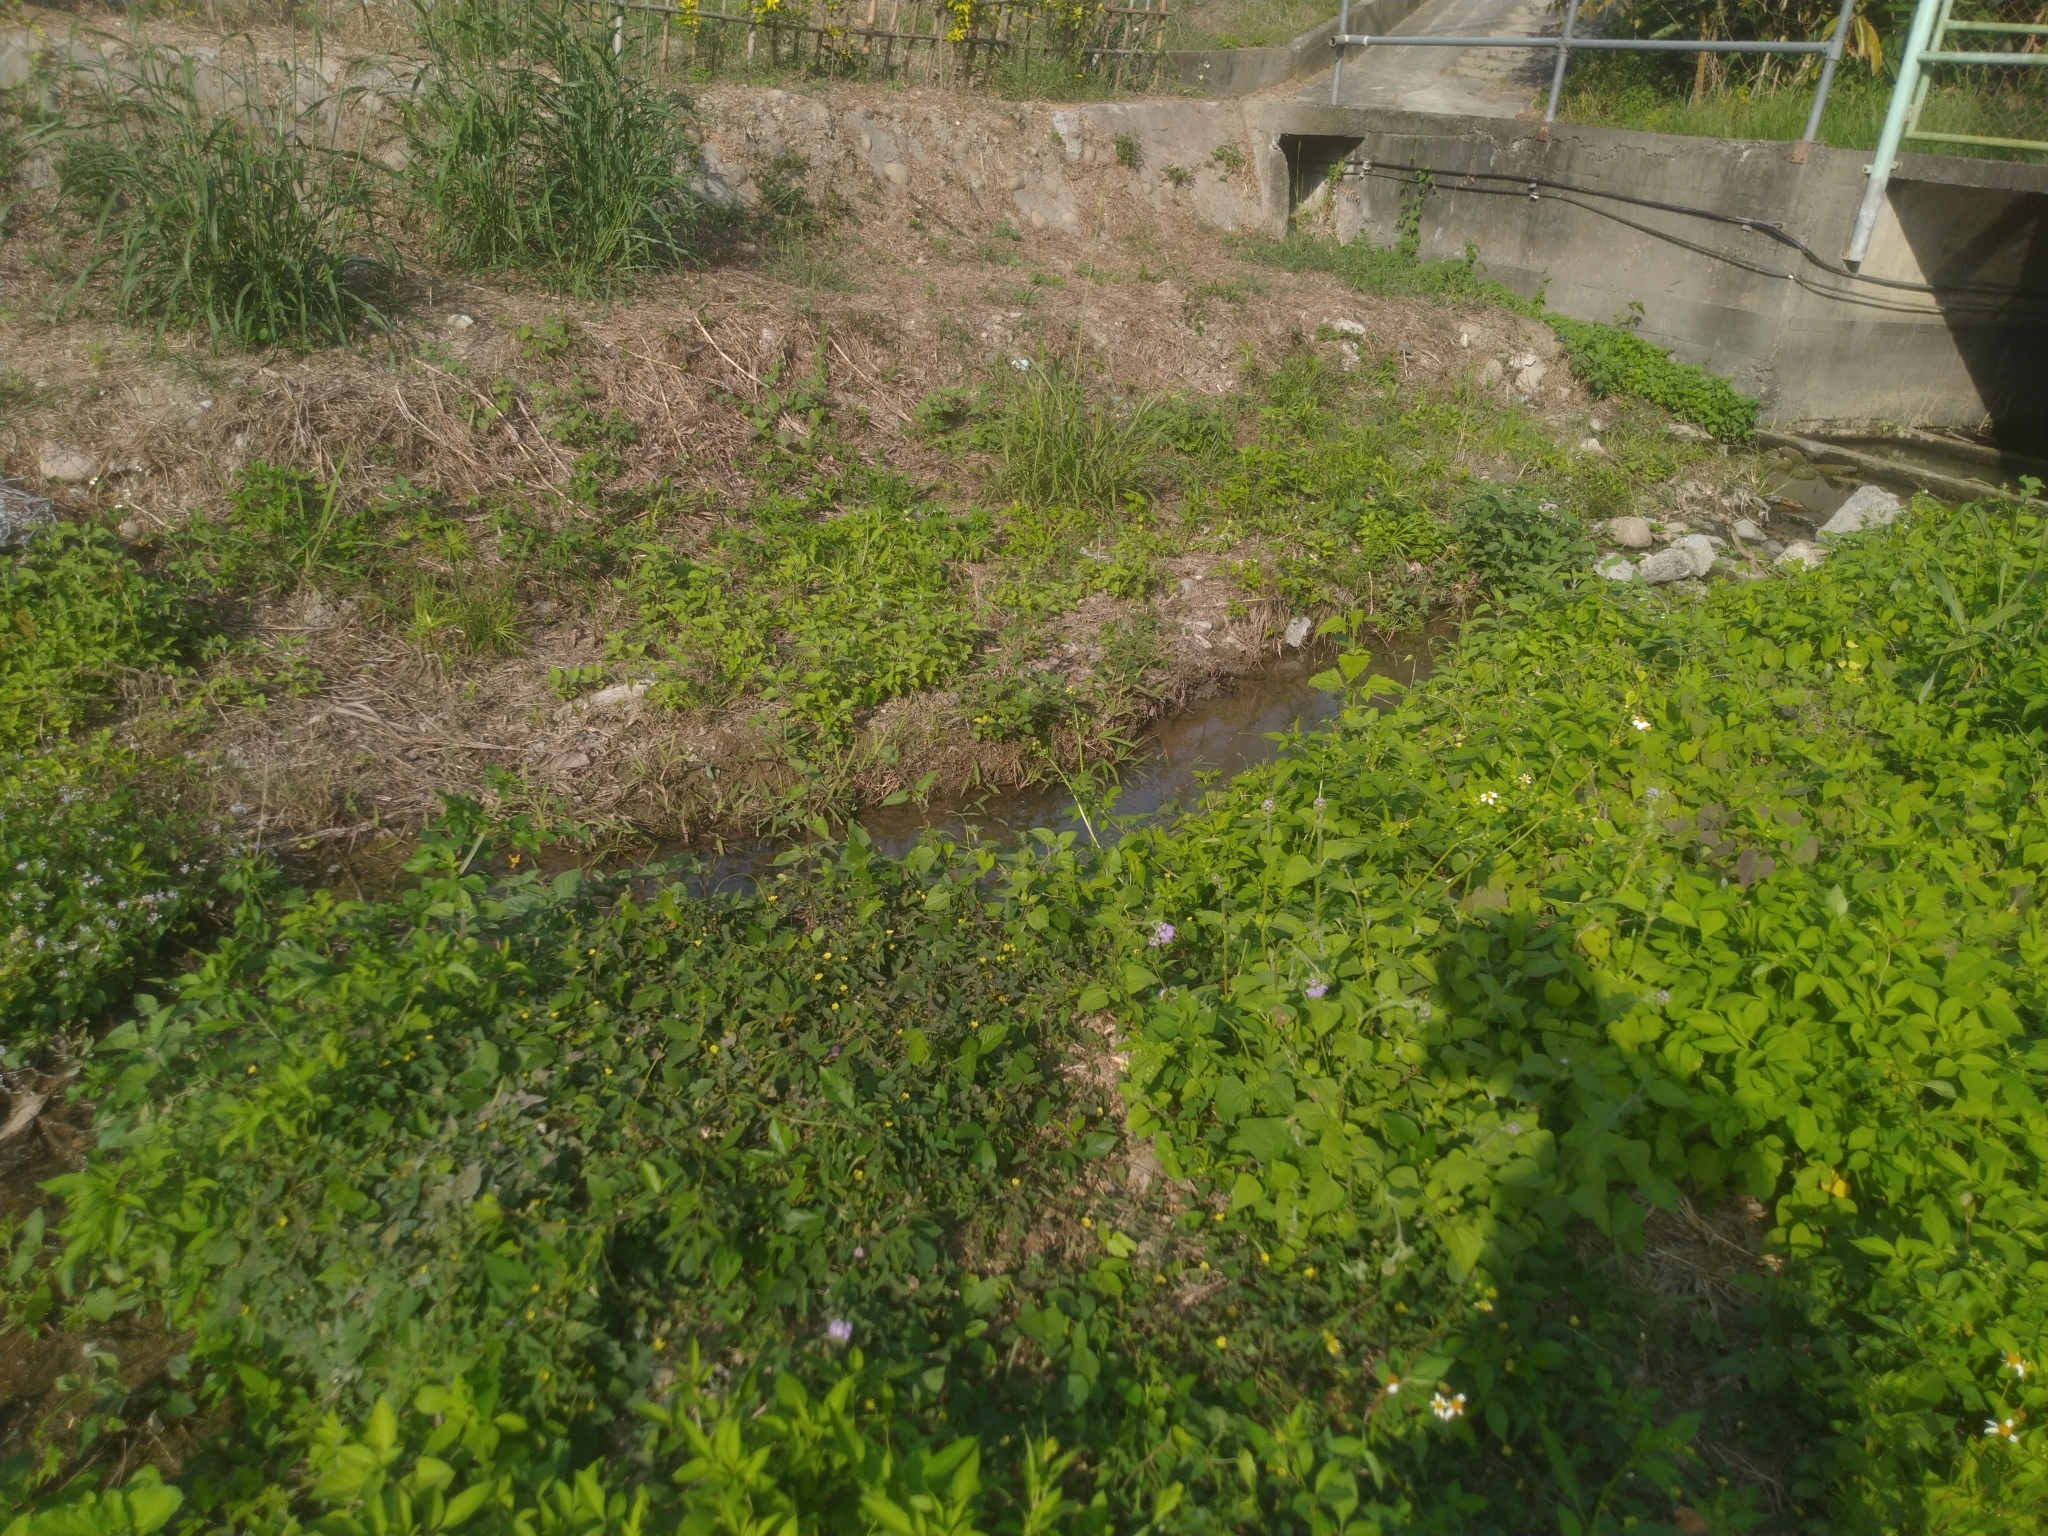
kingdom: Plantae
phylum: Tracheophyta
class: Magnoliopsida
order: Solanales
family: Convolvulaceae
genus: Merremia
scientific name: Merremia hederacea
